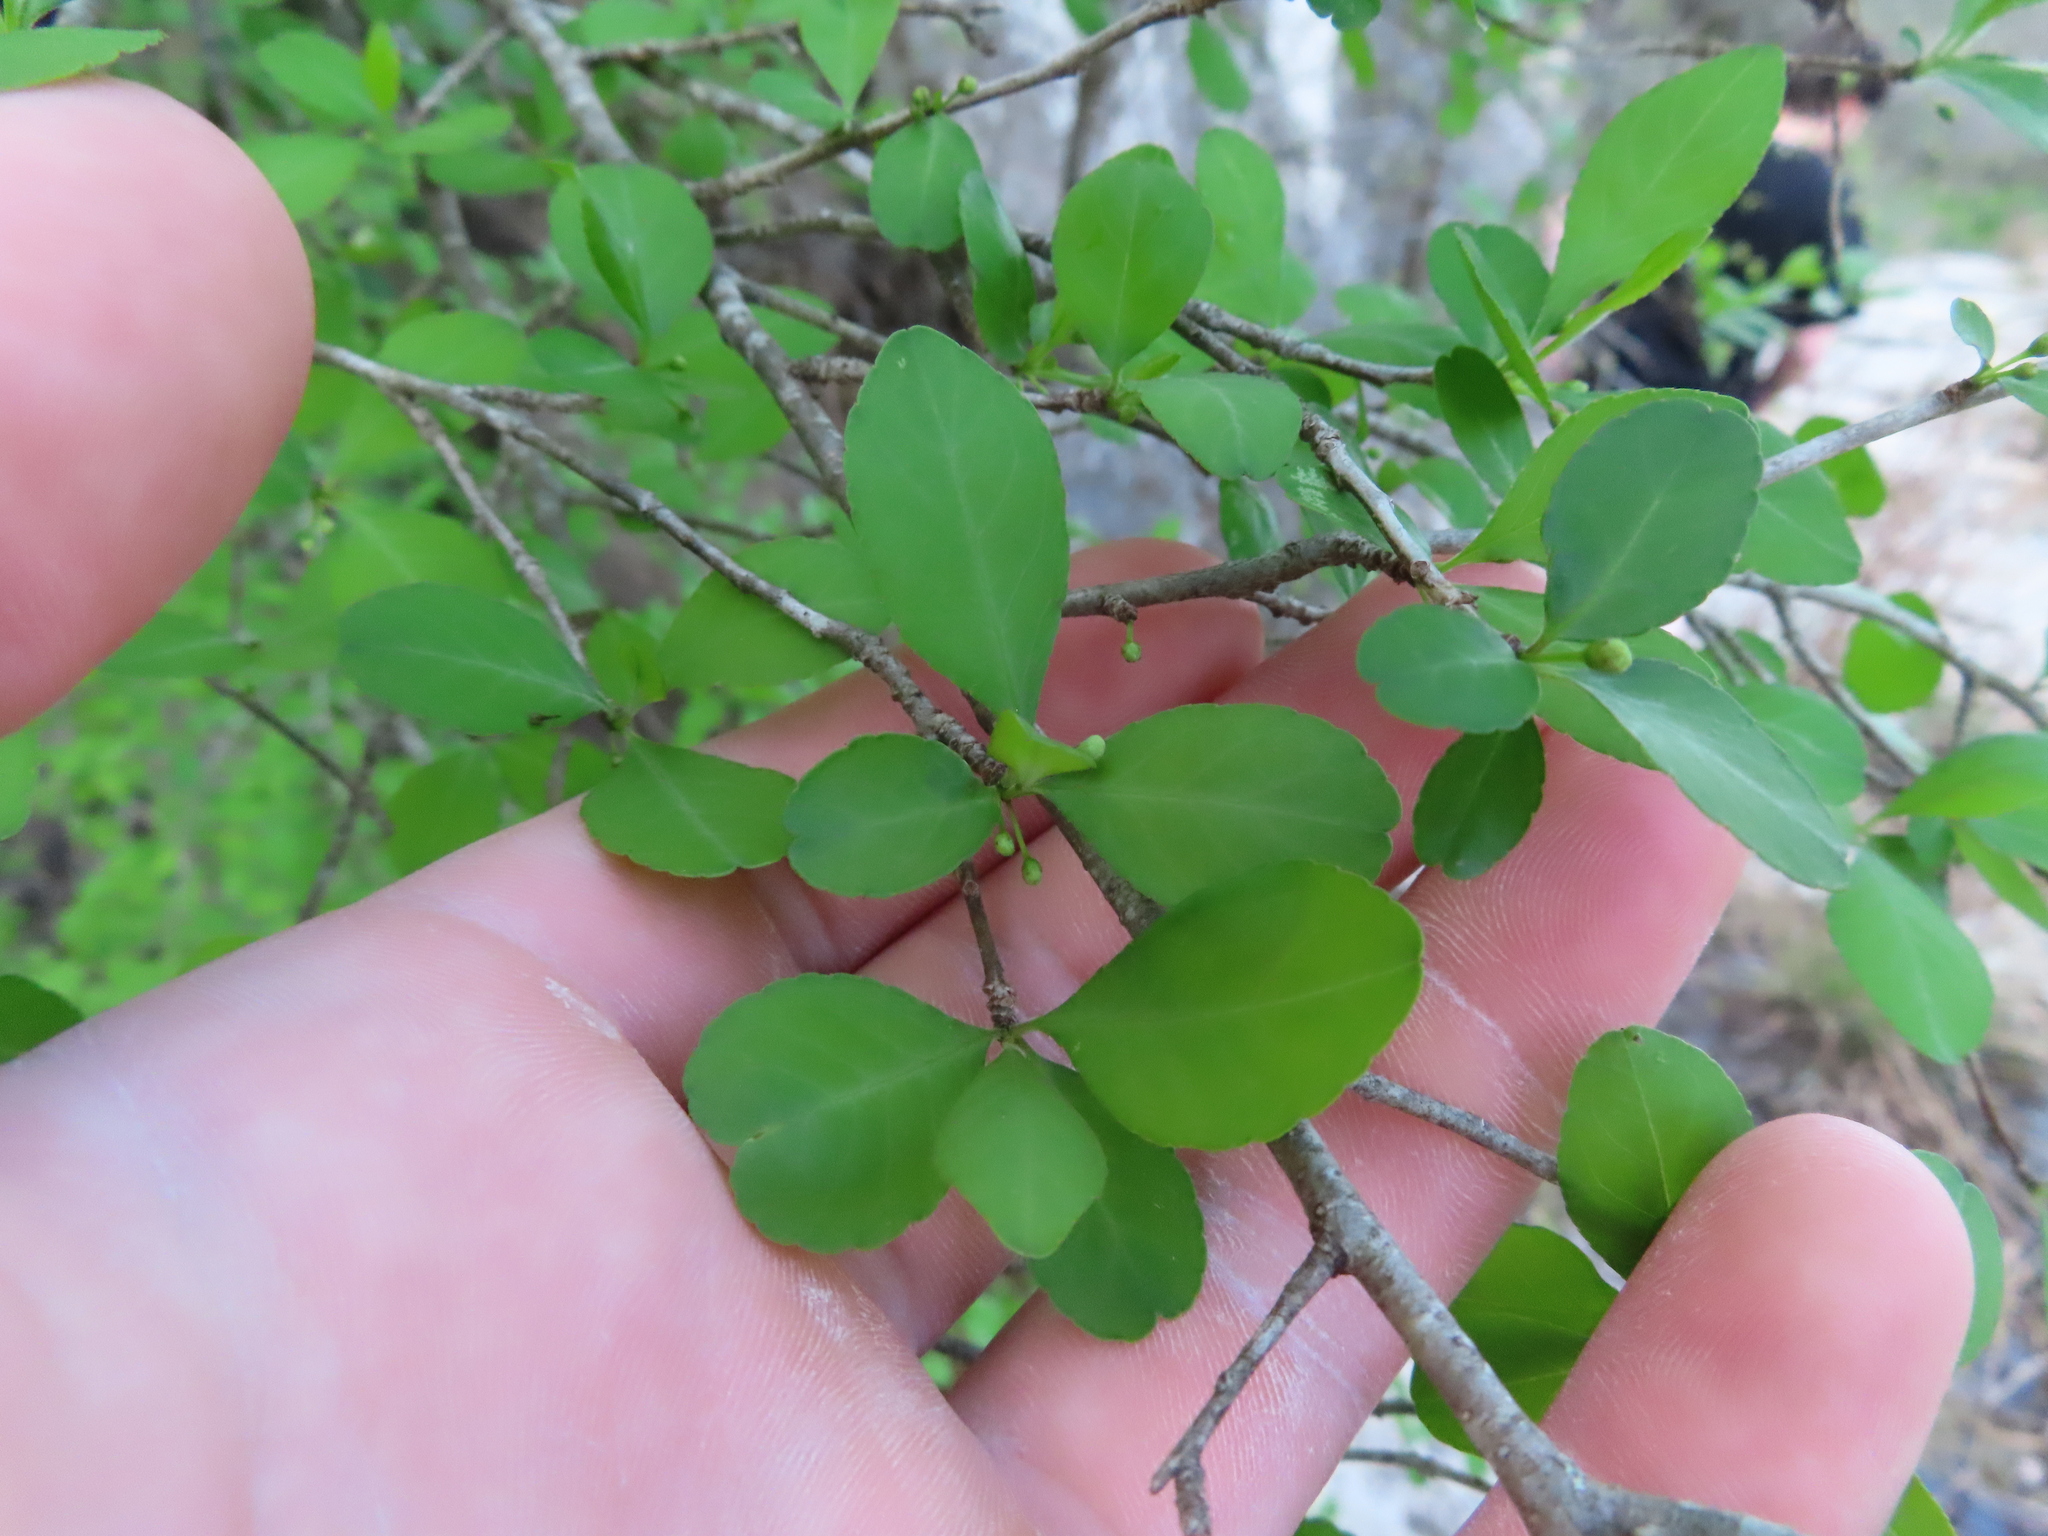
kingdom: Plantae
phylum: Tracheophyta
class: Magnoliopsida
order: Aquifoliales
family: Aquifoliaceae
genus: Ilex
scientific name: Ilex decidua
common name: Possum-haw
